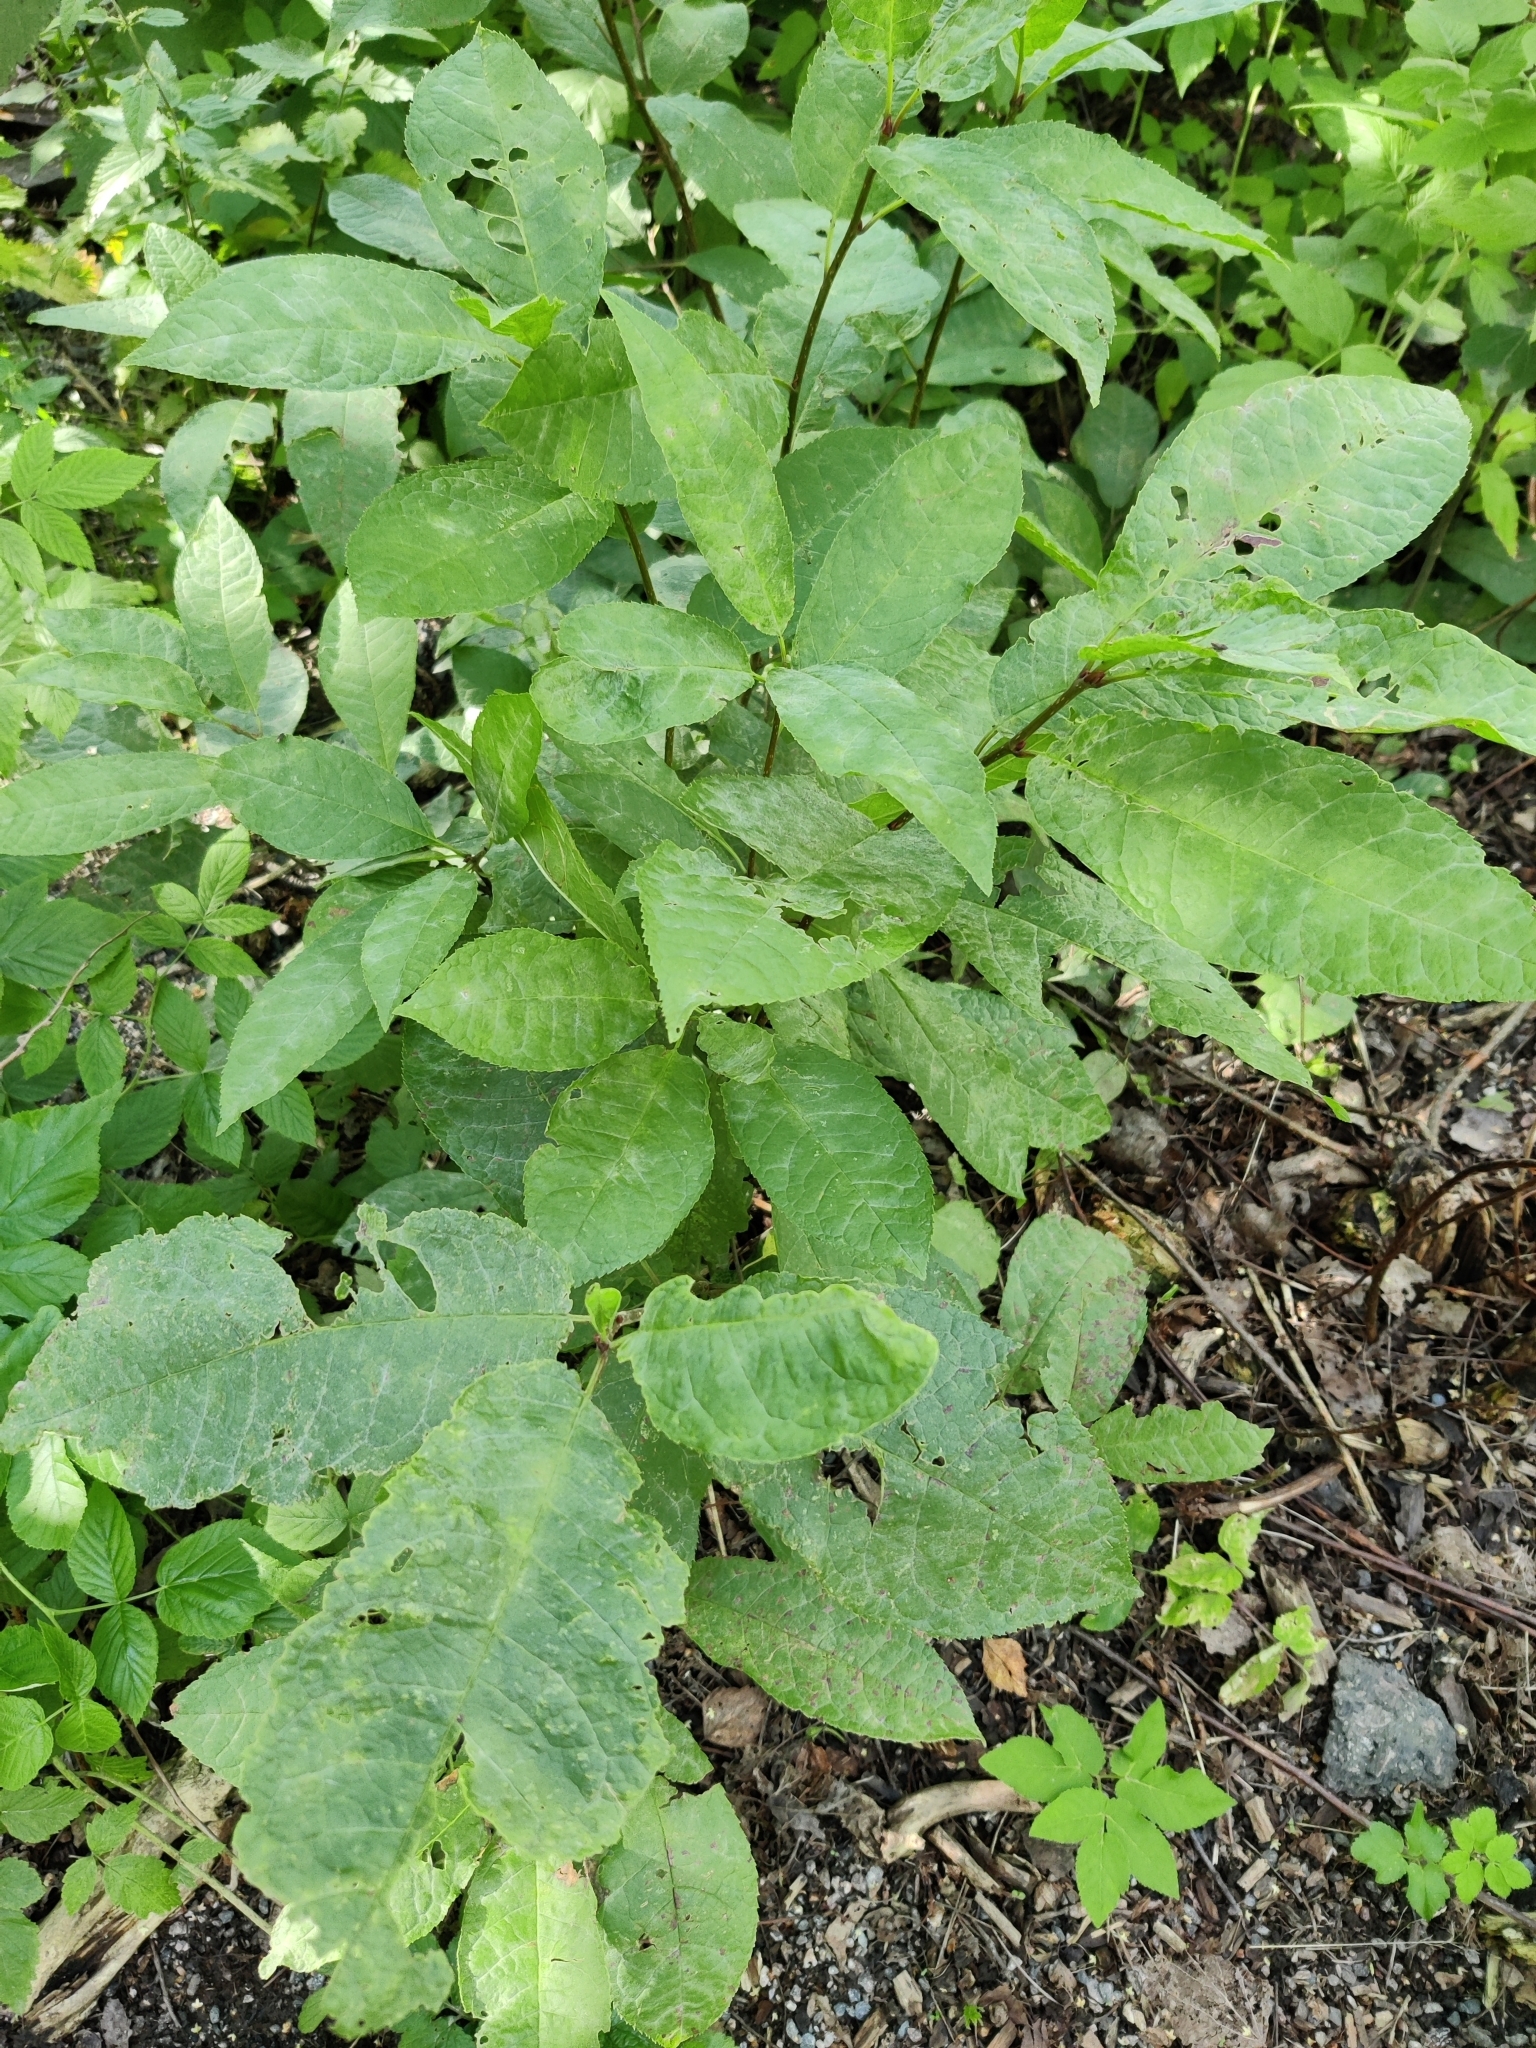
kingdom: Plantae
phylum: Tracheophyta
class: Magnoliopsida
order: Rosales
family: Rosaceae
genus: Prunus
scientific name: Prunus padus
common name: Bird cherry
